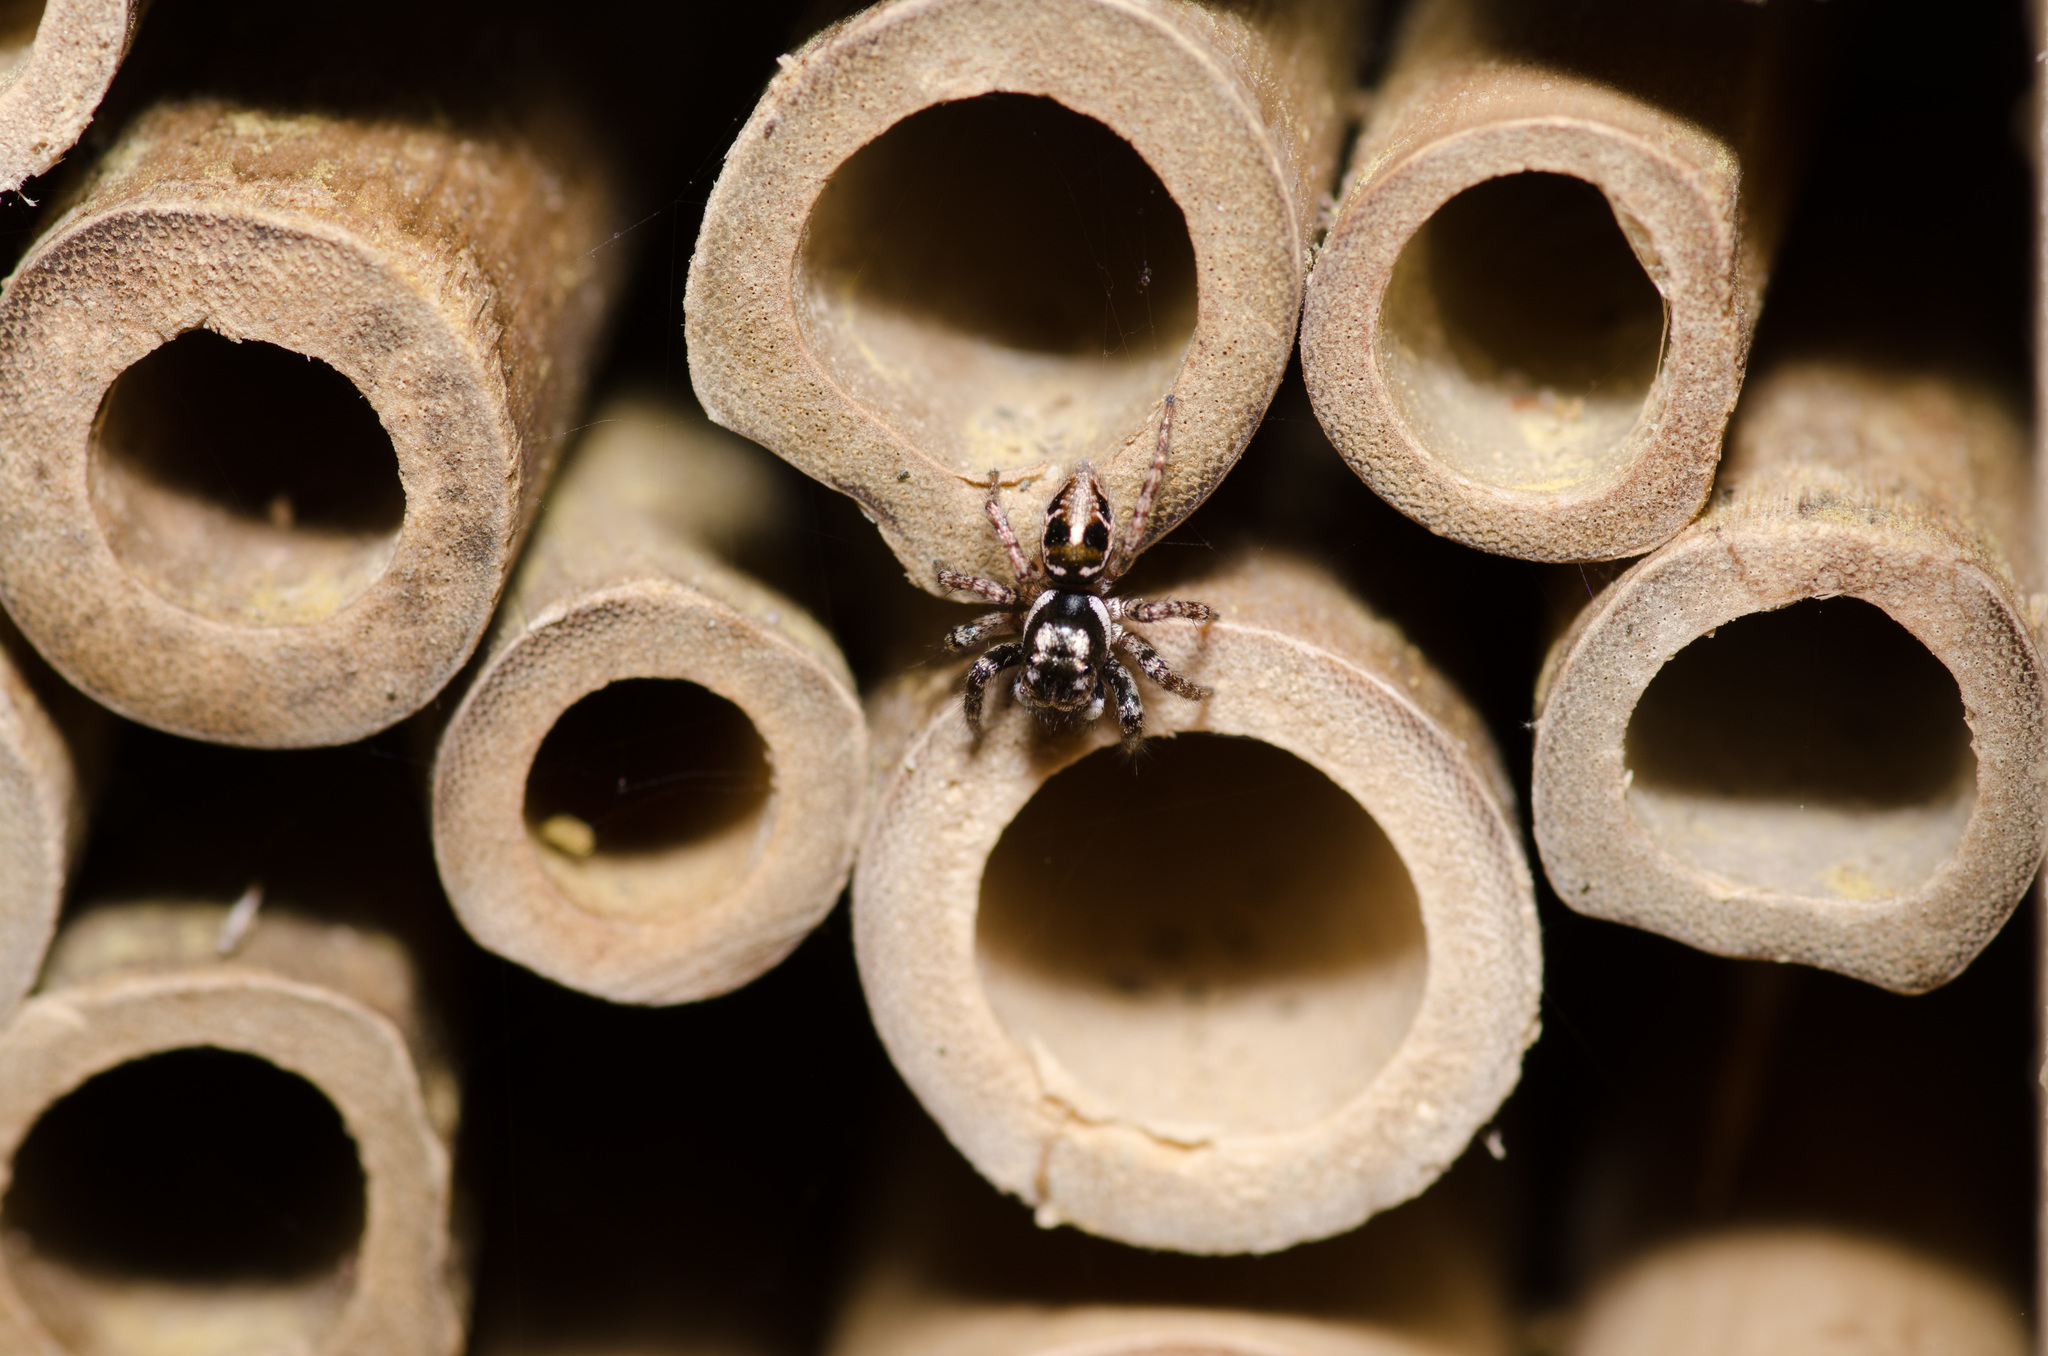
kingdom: Animalia
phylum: Arthropoda
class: Arachnida
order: Araneae
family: Salticidae
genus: Anasaitis
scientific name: Anasaitis canosa
